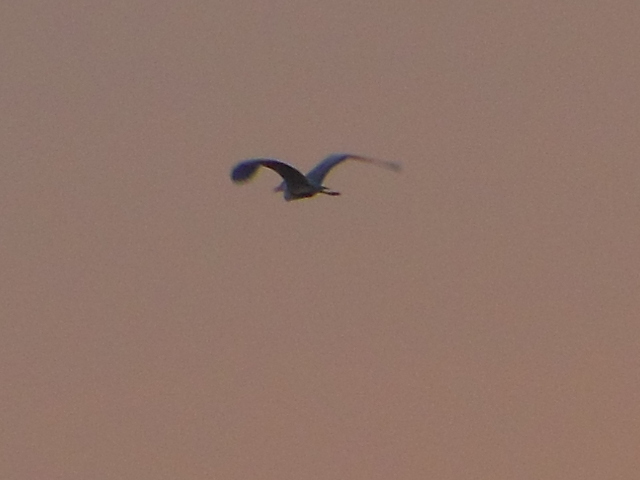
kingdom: Animalia
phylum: Chordata
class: Aves
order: Pelecaniformes
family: Ardeidae
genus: Ardea
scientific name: Ardea cinerea
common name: Grey heron
